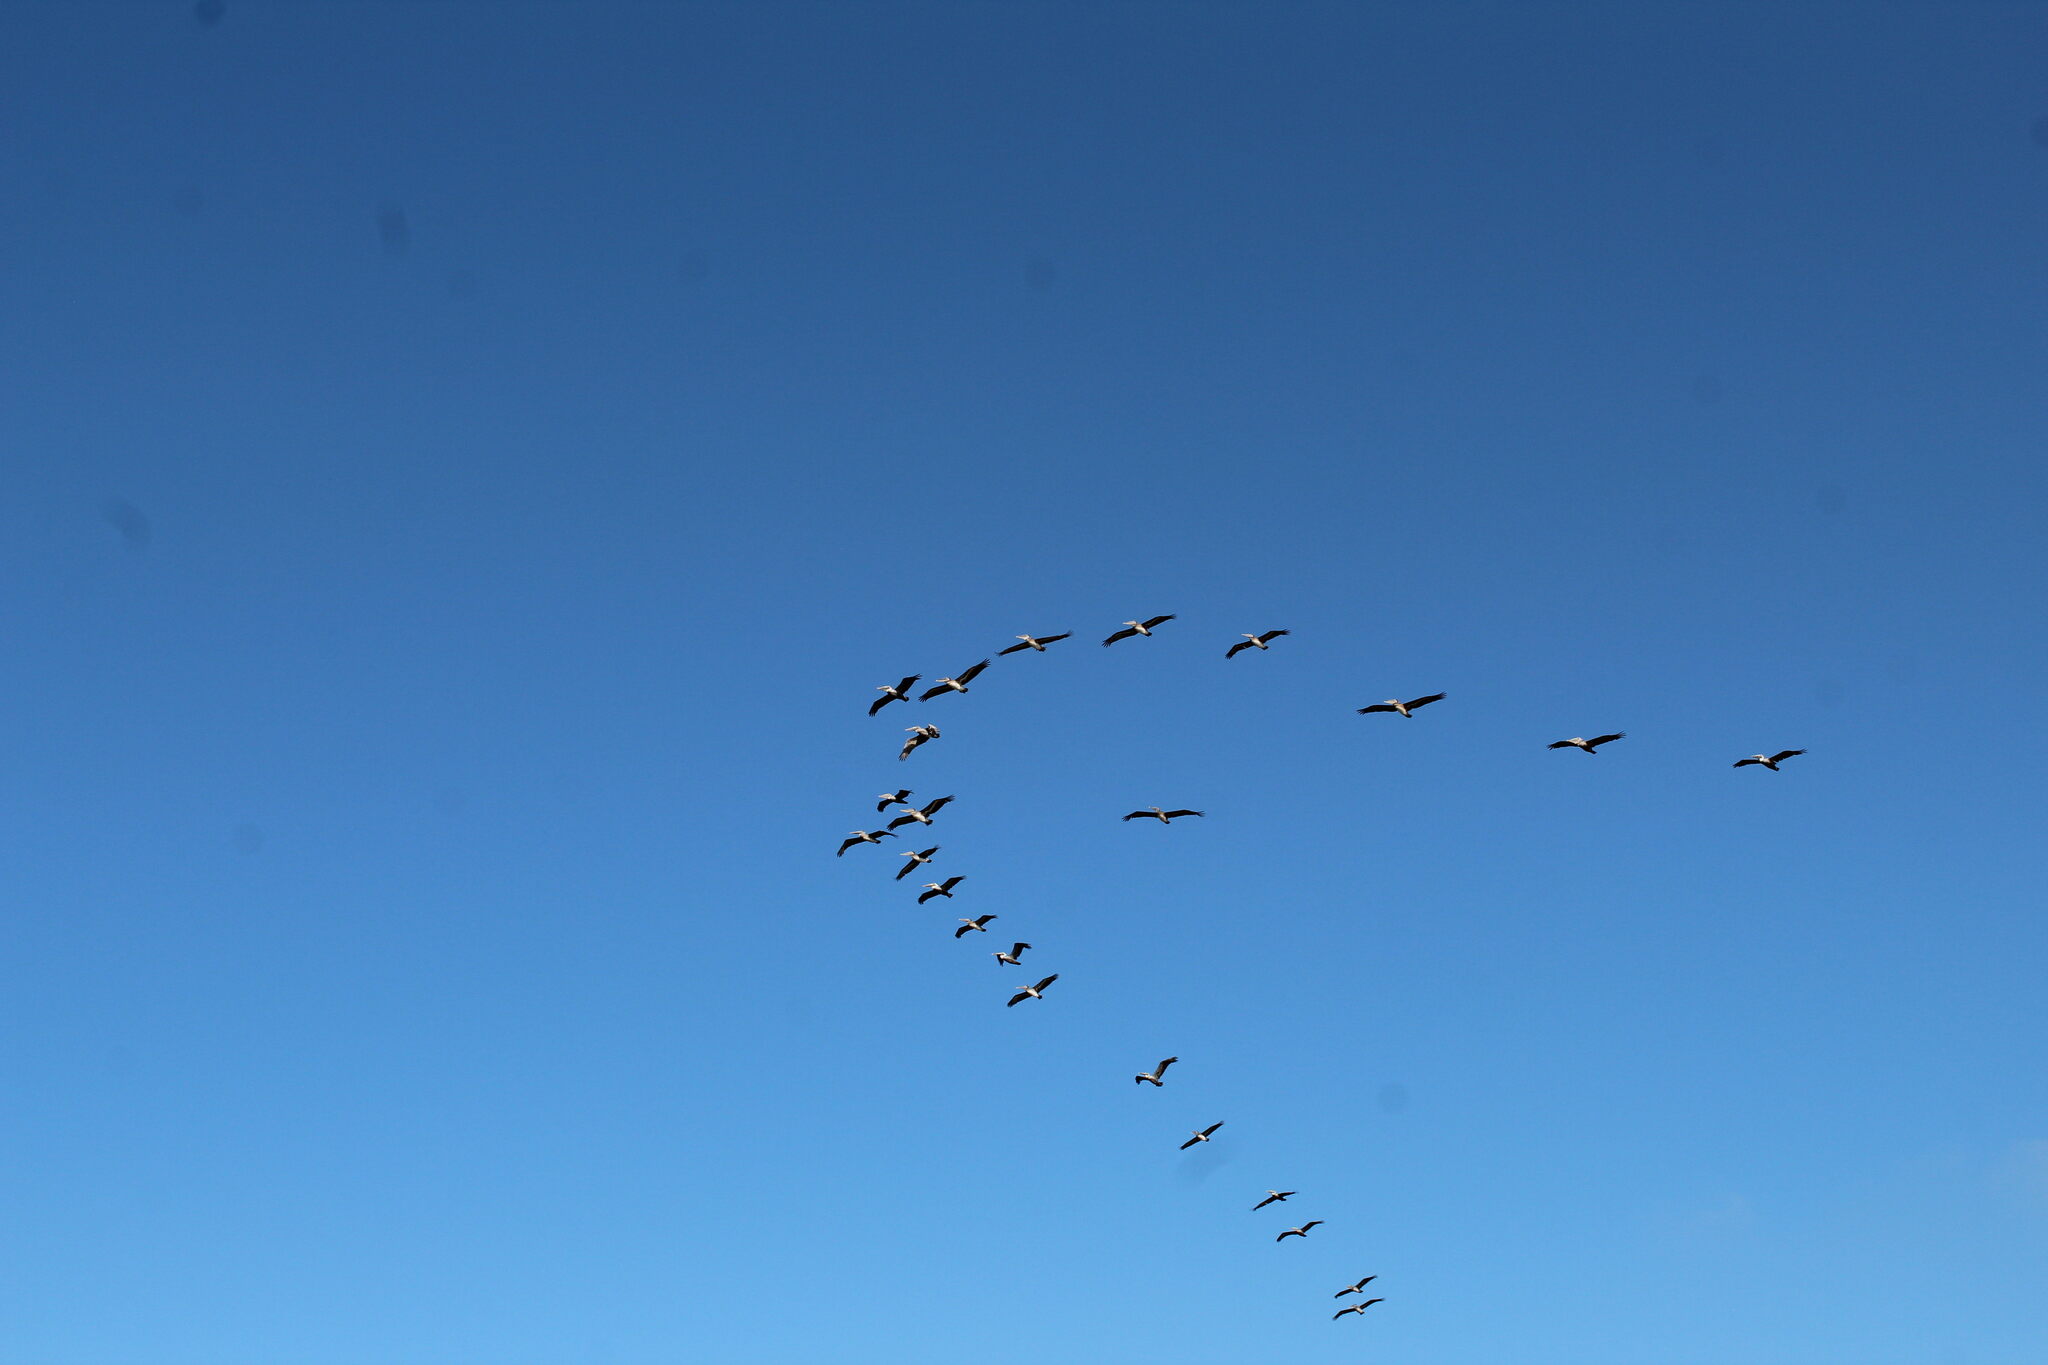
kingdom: Animalia
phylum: Chordata
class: Aves
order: Pelecaniformes
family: Pelecanidae
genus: Pelecanus
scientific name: Pelecanus occidentalis
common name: Brown pelican
